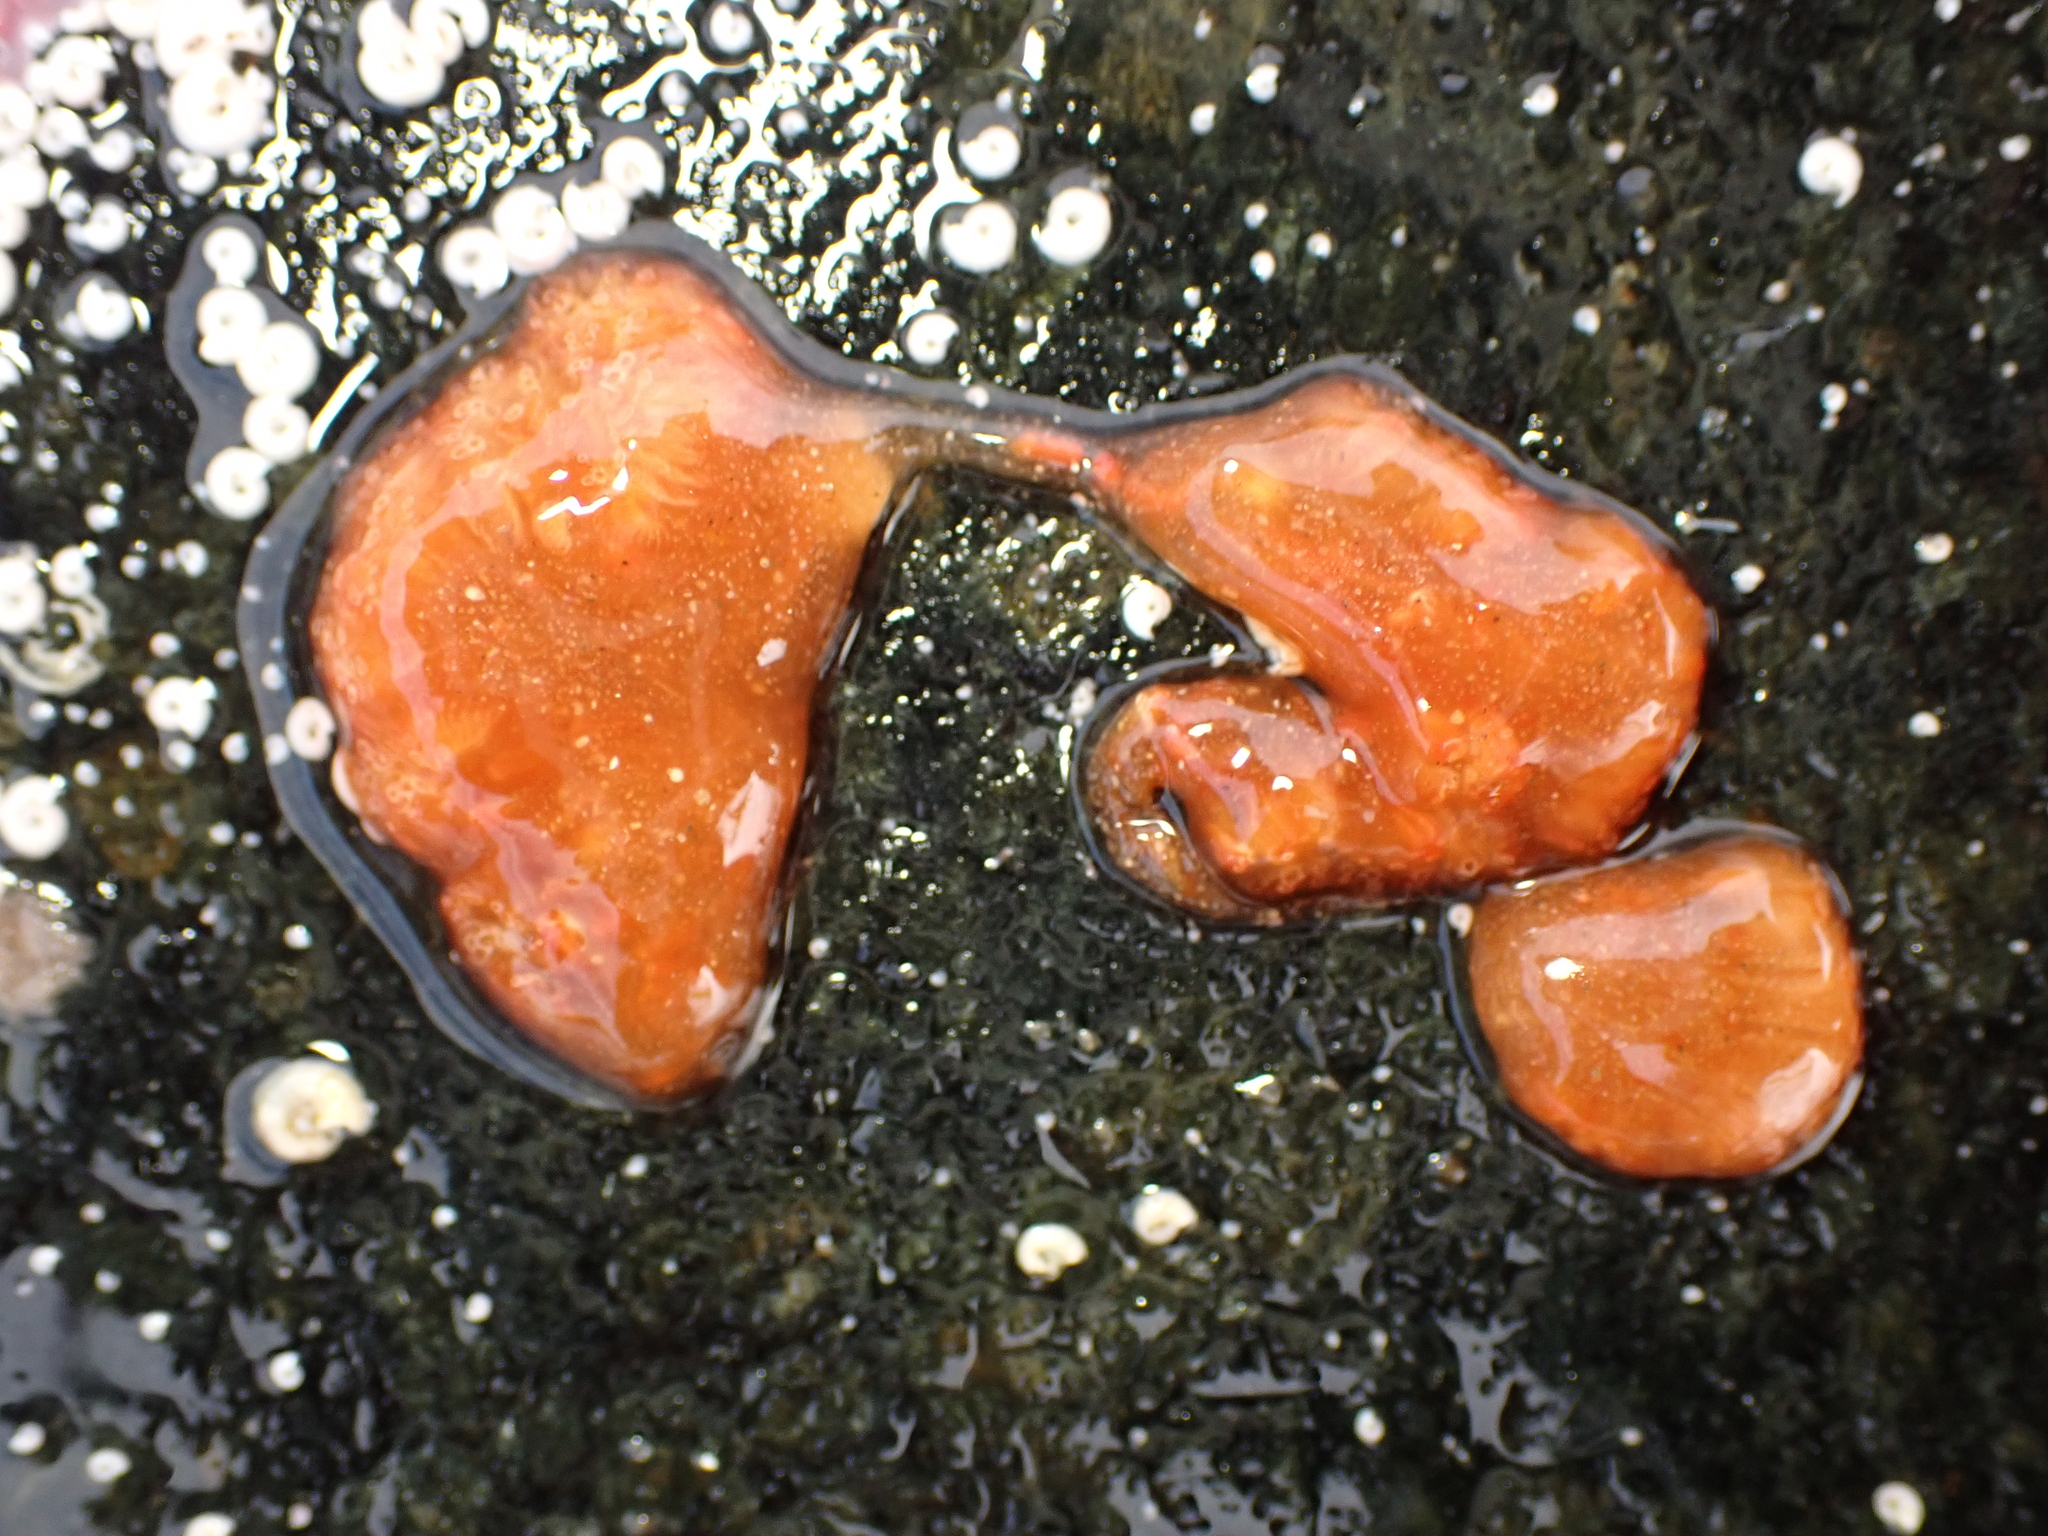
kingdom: Animalia
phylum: Chordata
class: Ascidiacea
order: Aplousobranchia
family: Polyclinidae
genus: Aplidium
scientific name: Aplidium benhami
